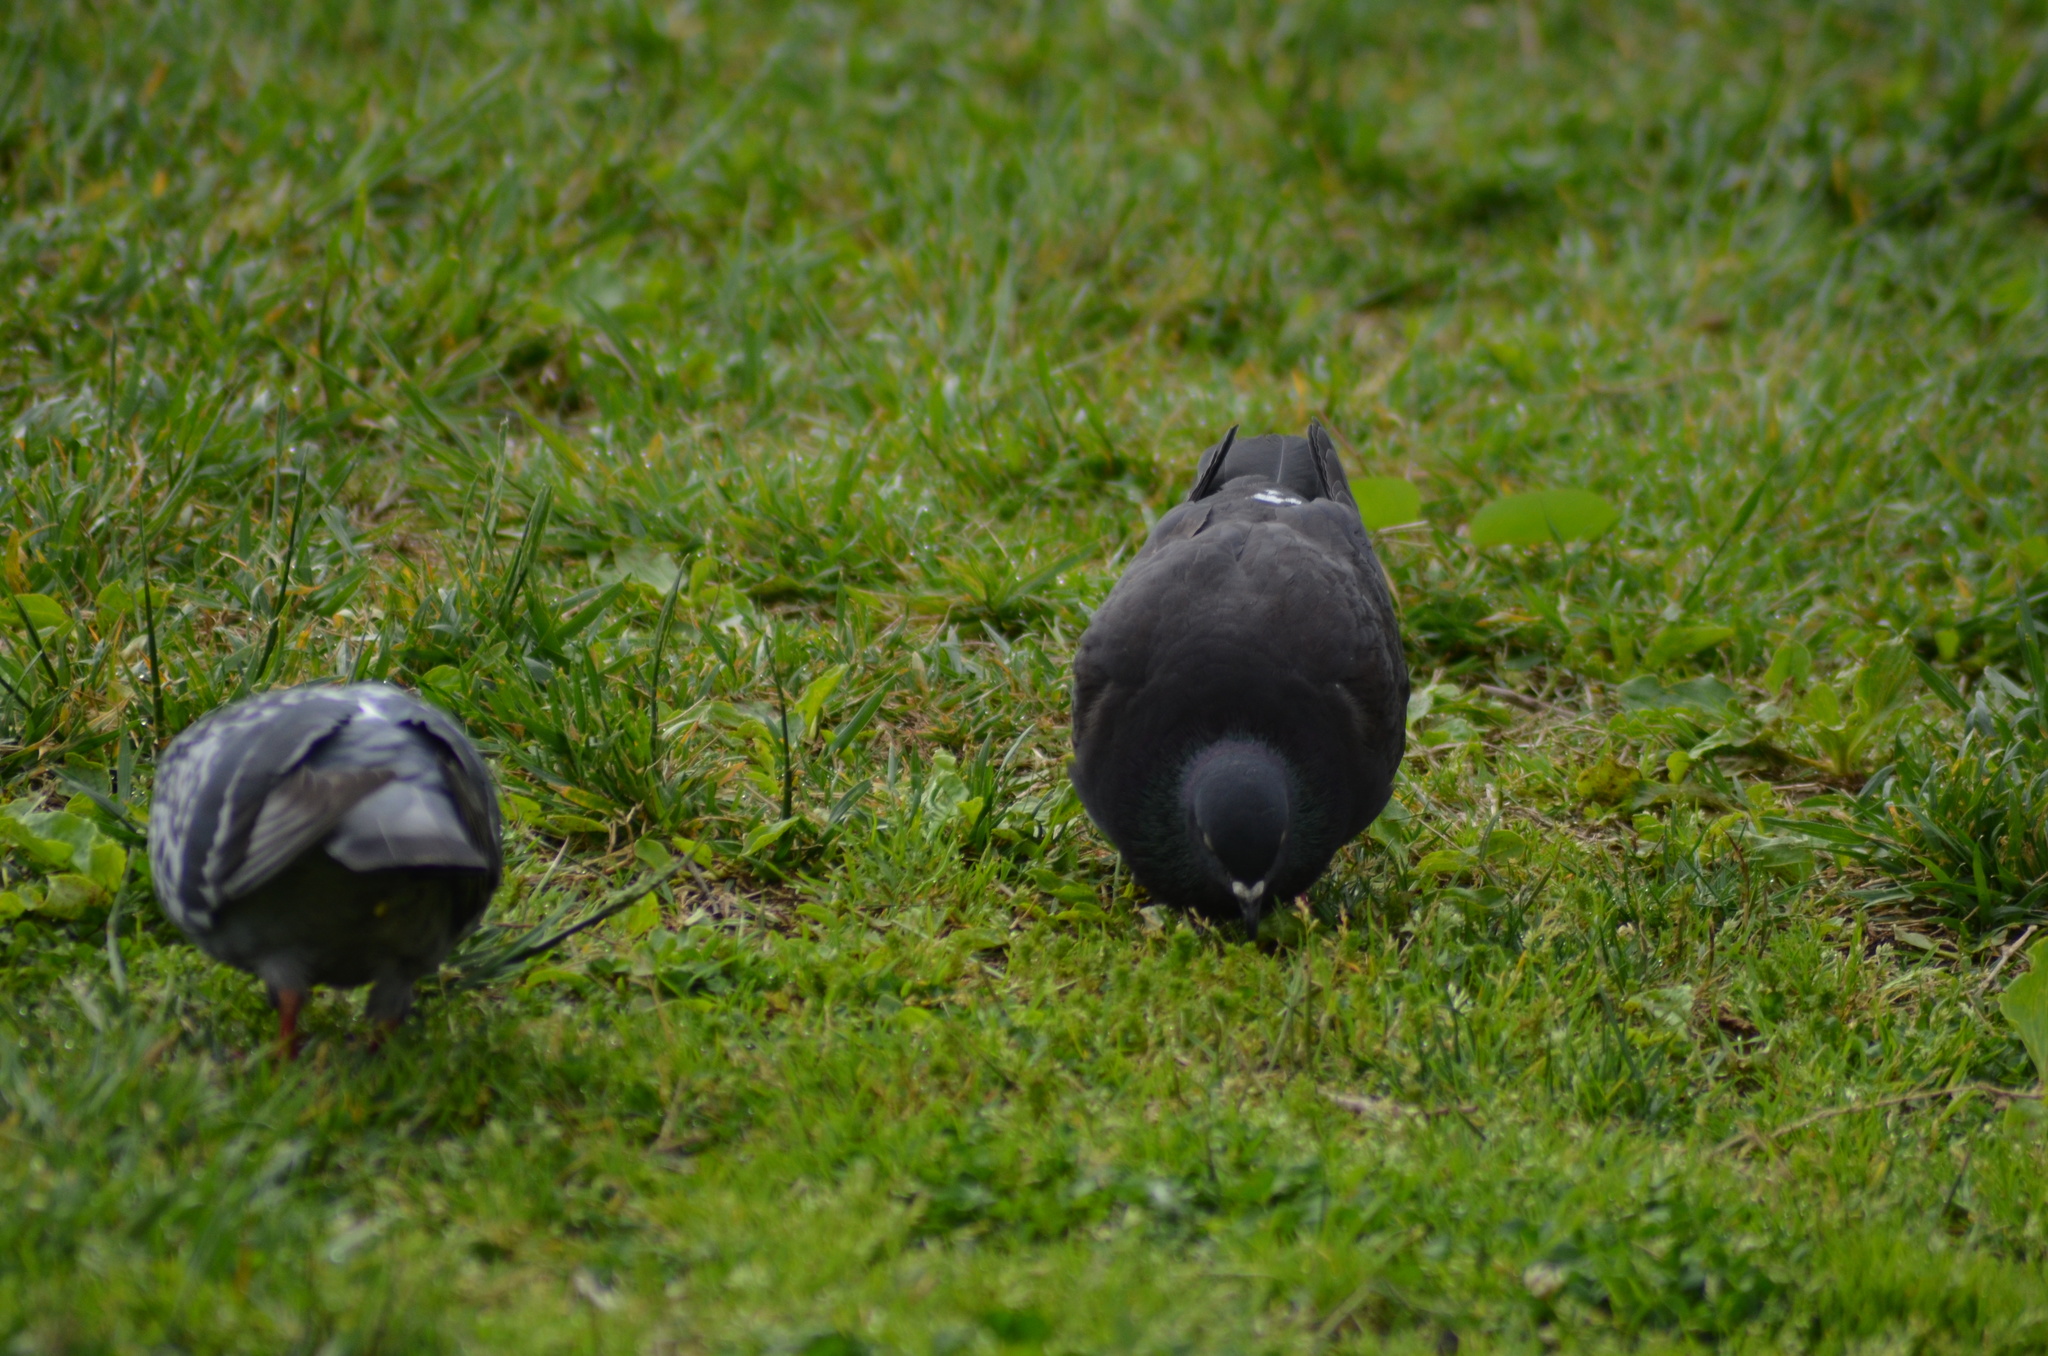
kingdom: Animalia
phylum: Chordata
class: Aves
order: Columbiformes
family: Columbidae
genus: Columba
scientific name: Columba livia
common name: Rock pigeon
